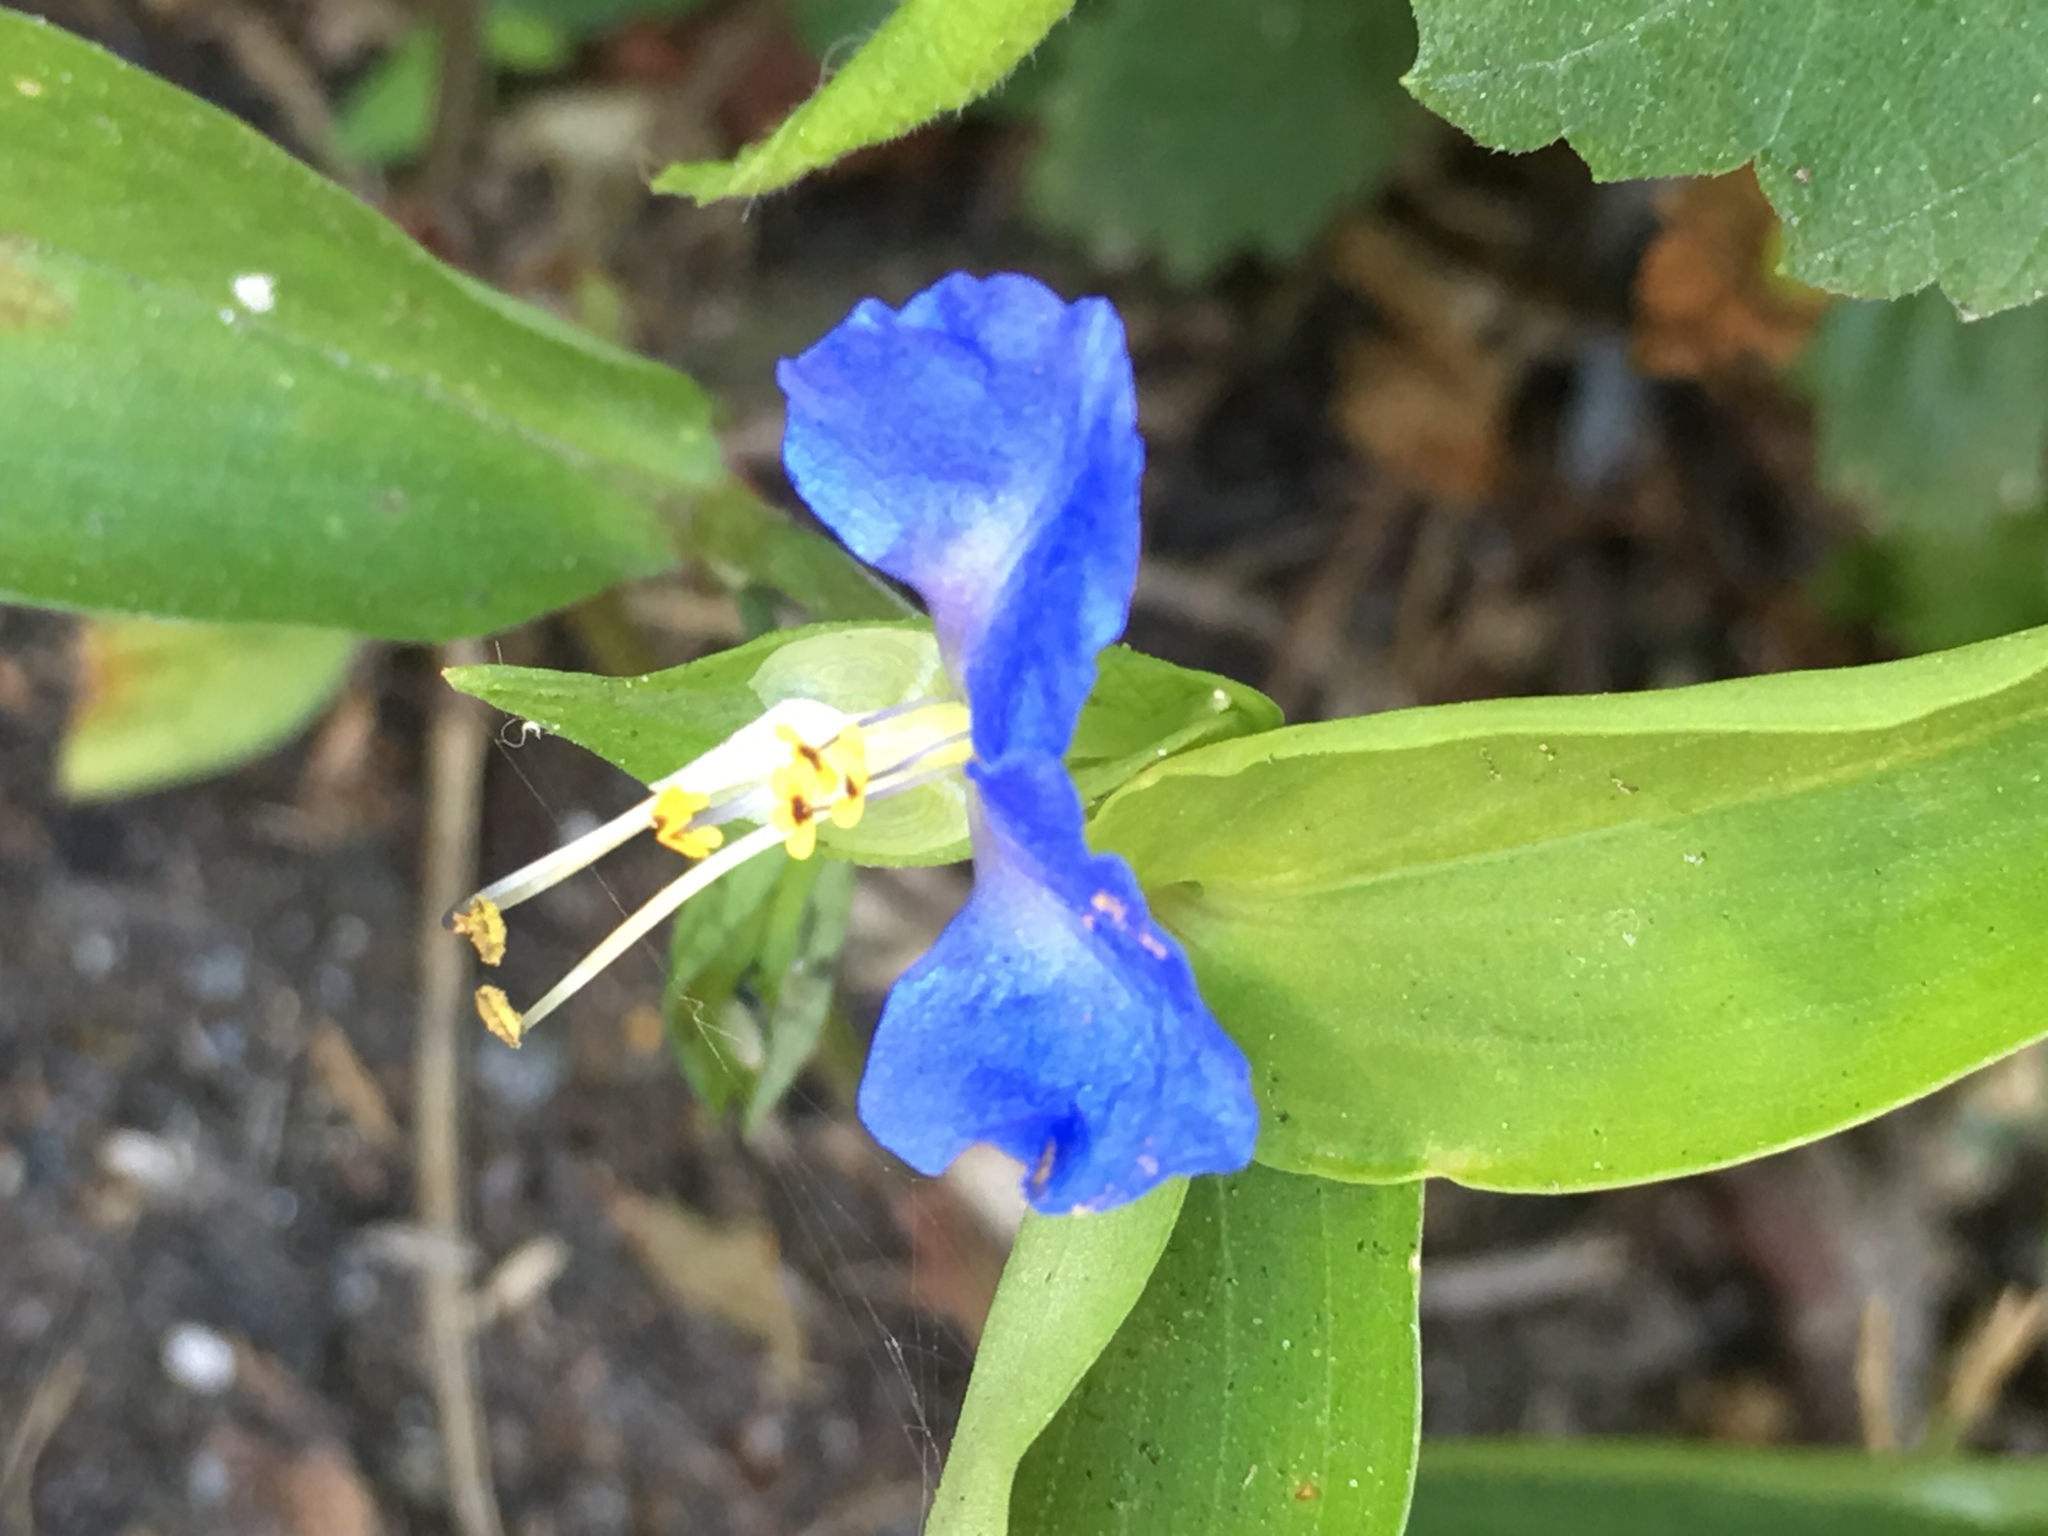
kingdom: Plantae
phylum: Tracheophyta
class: Liliopsida
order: Commelinales
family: Commelinaceae
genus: Commelina
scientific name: Commelina communis
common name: Asiatic dayflower
